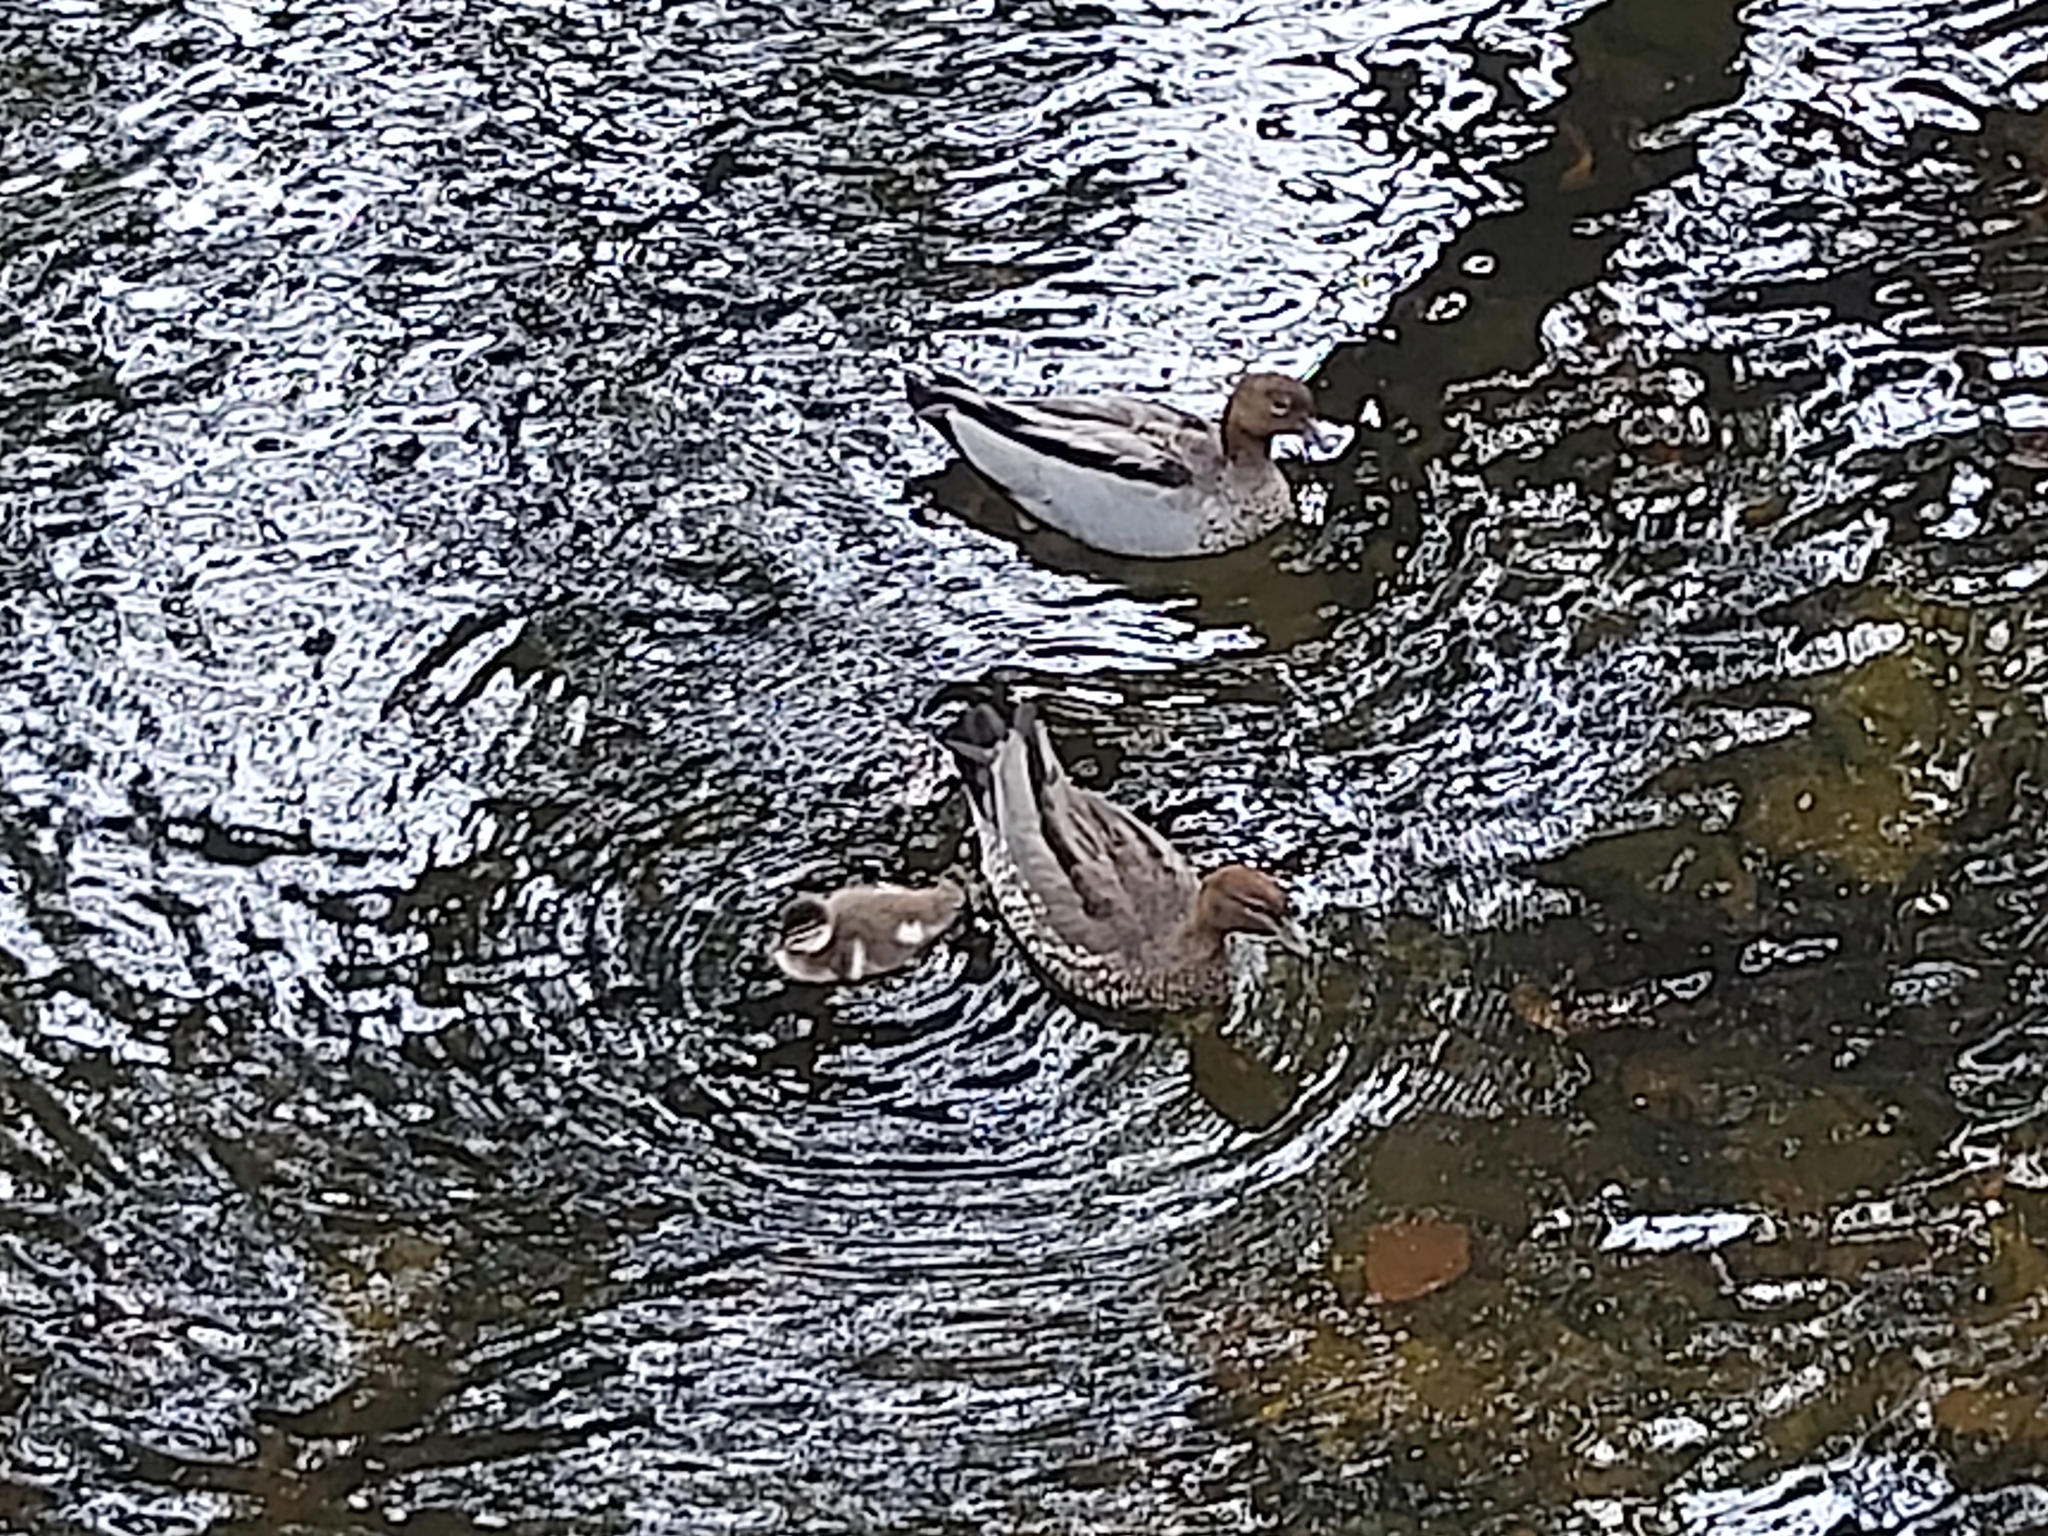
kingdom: Animalia
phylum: Chordata
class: Aves
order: Anseriformes
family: Anatidae
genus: Chenonetta
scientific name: Chenonetta jubata
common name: Maned duck
